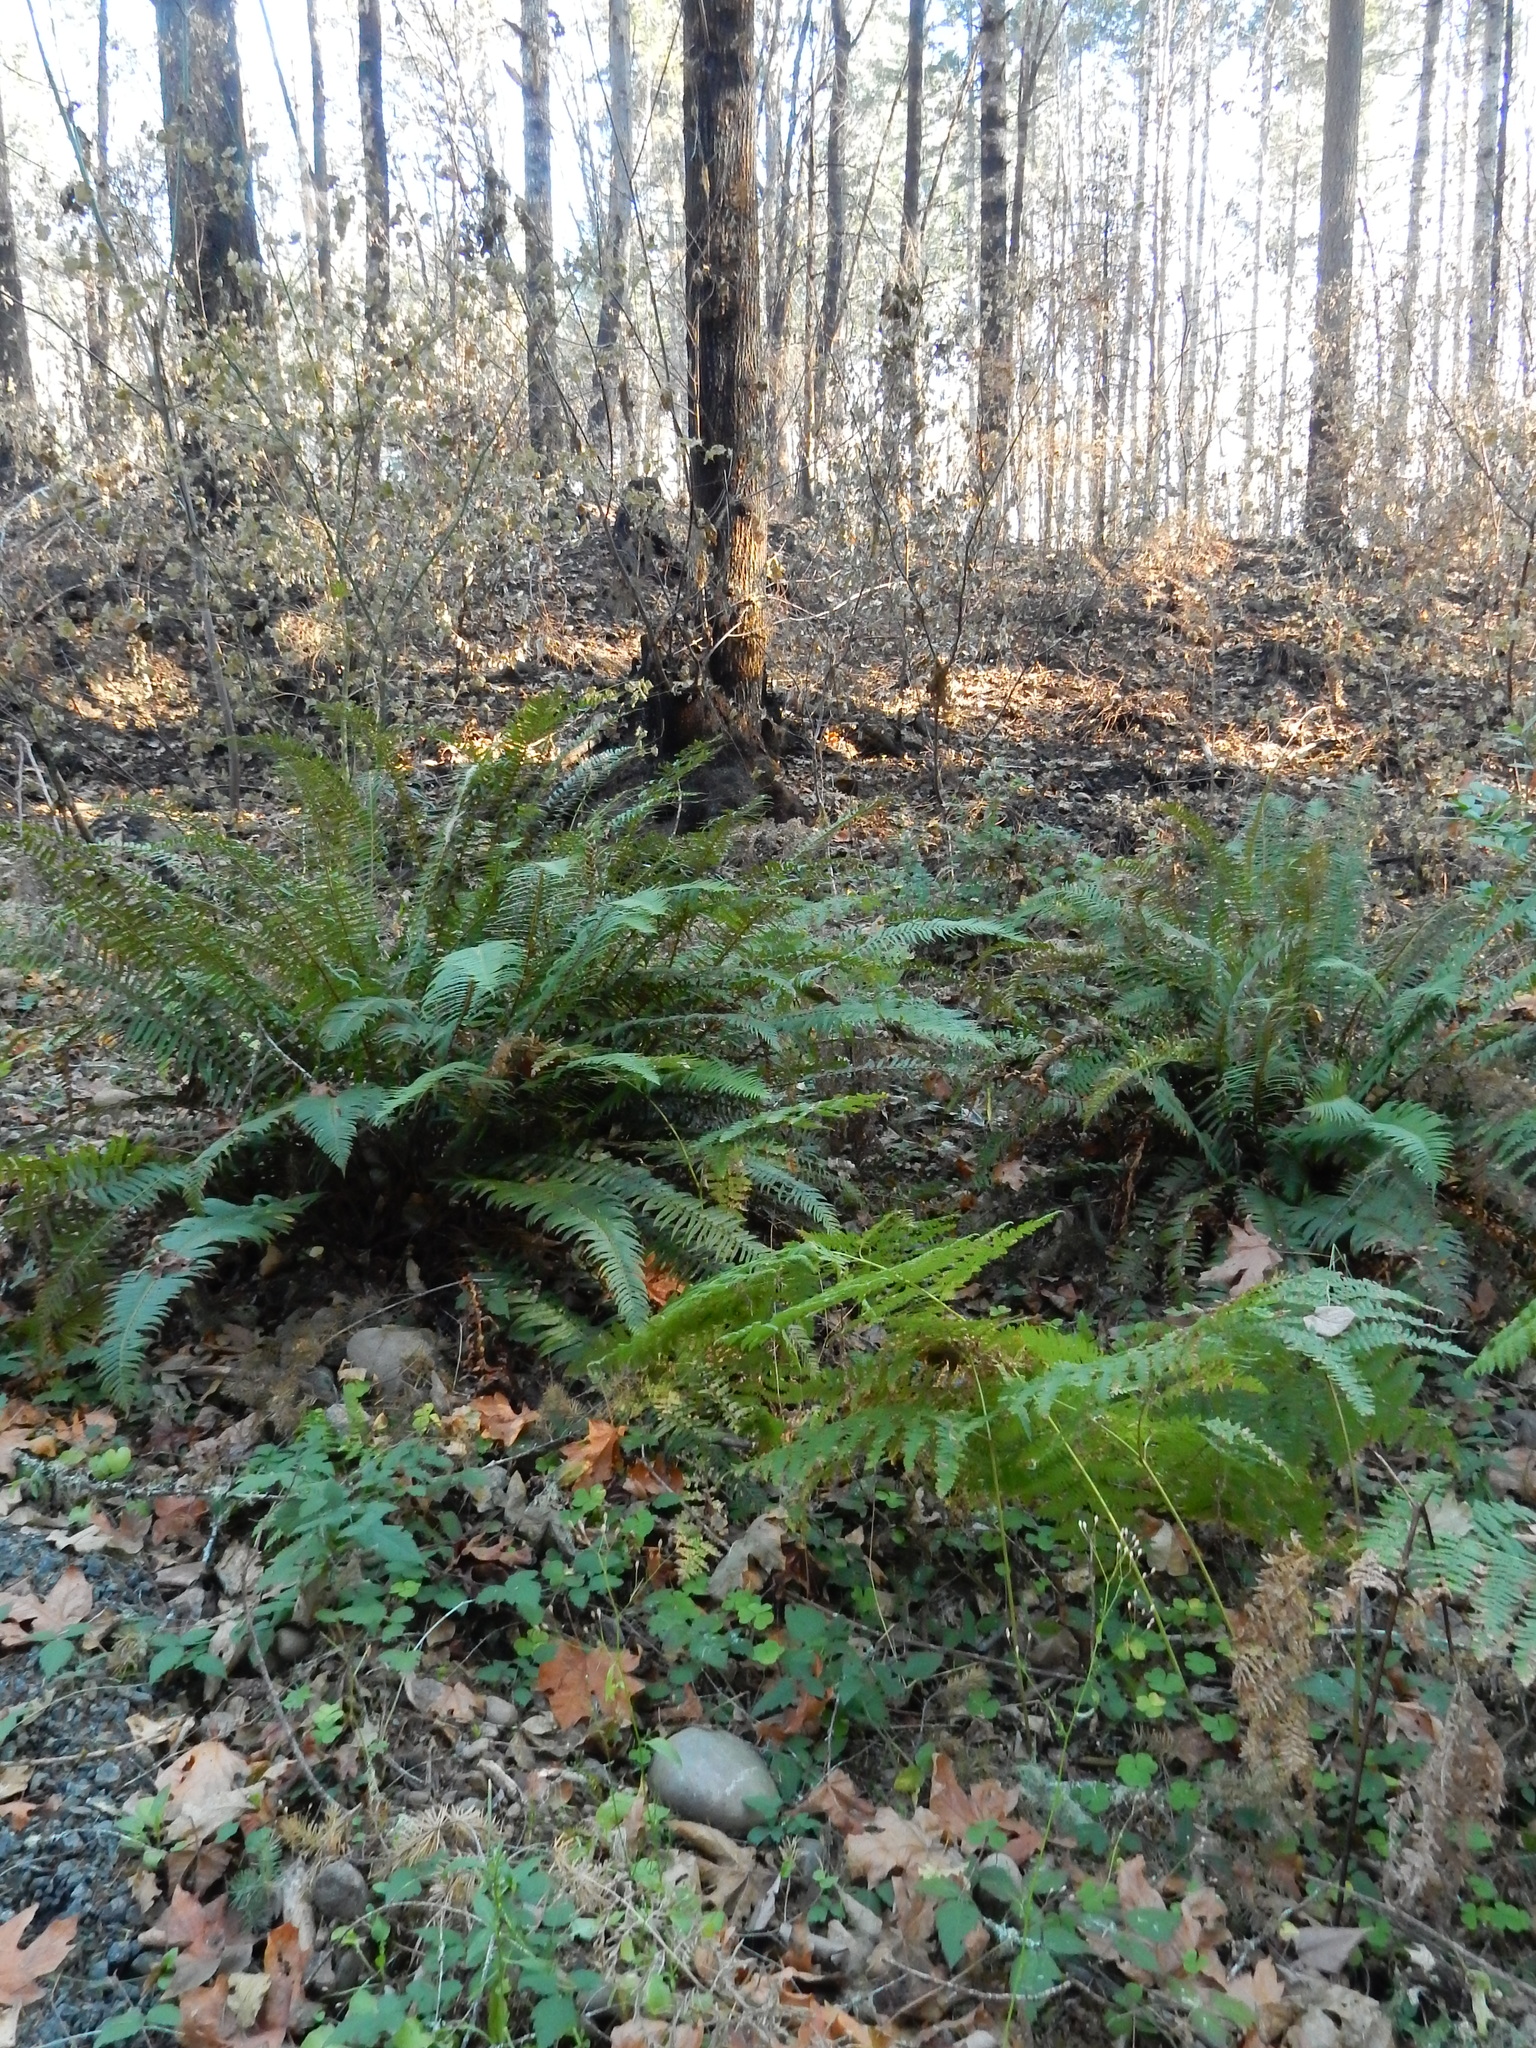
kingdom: Plantae
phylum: Tracheophyta
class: Polypodiopsida
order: Polypodiales
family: Dryopteridaceae
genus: Polystichum
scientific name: Polystichum munitum
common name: Western sword-fern
